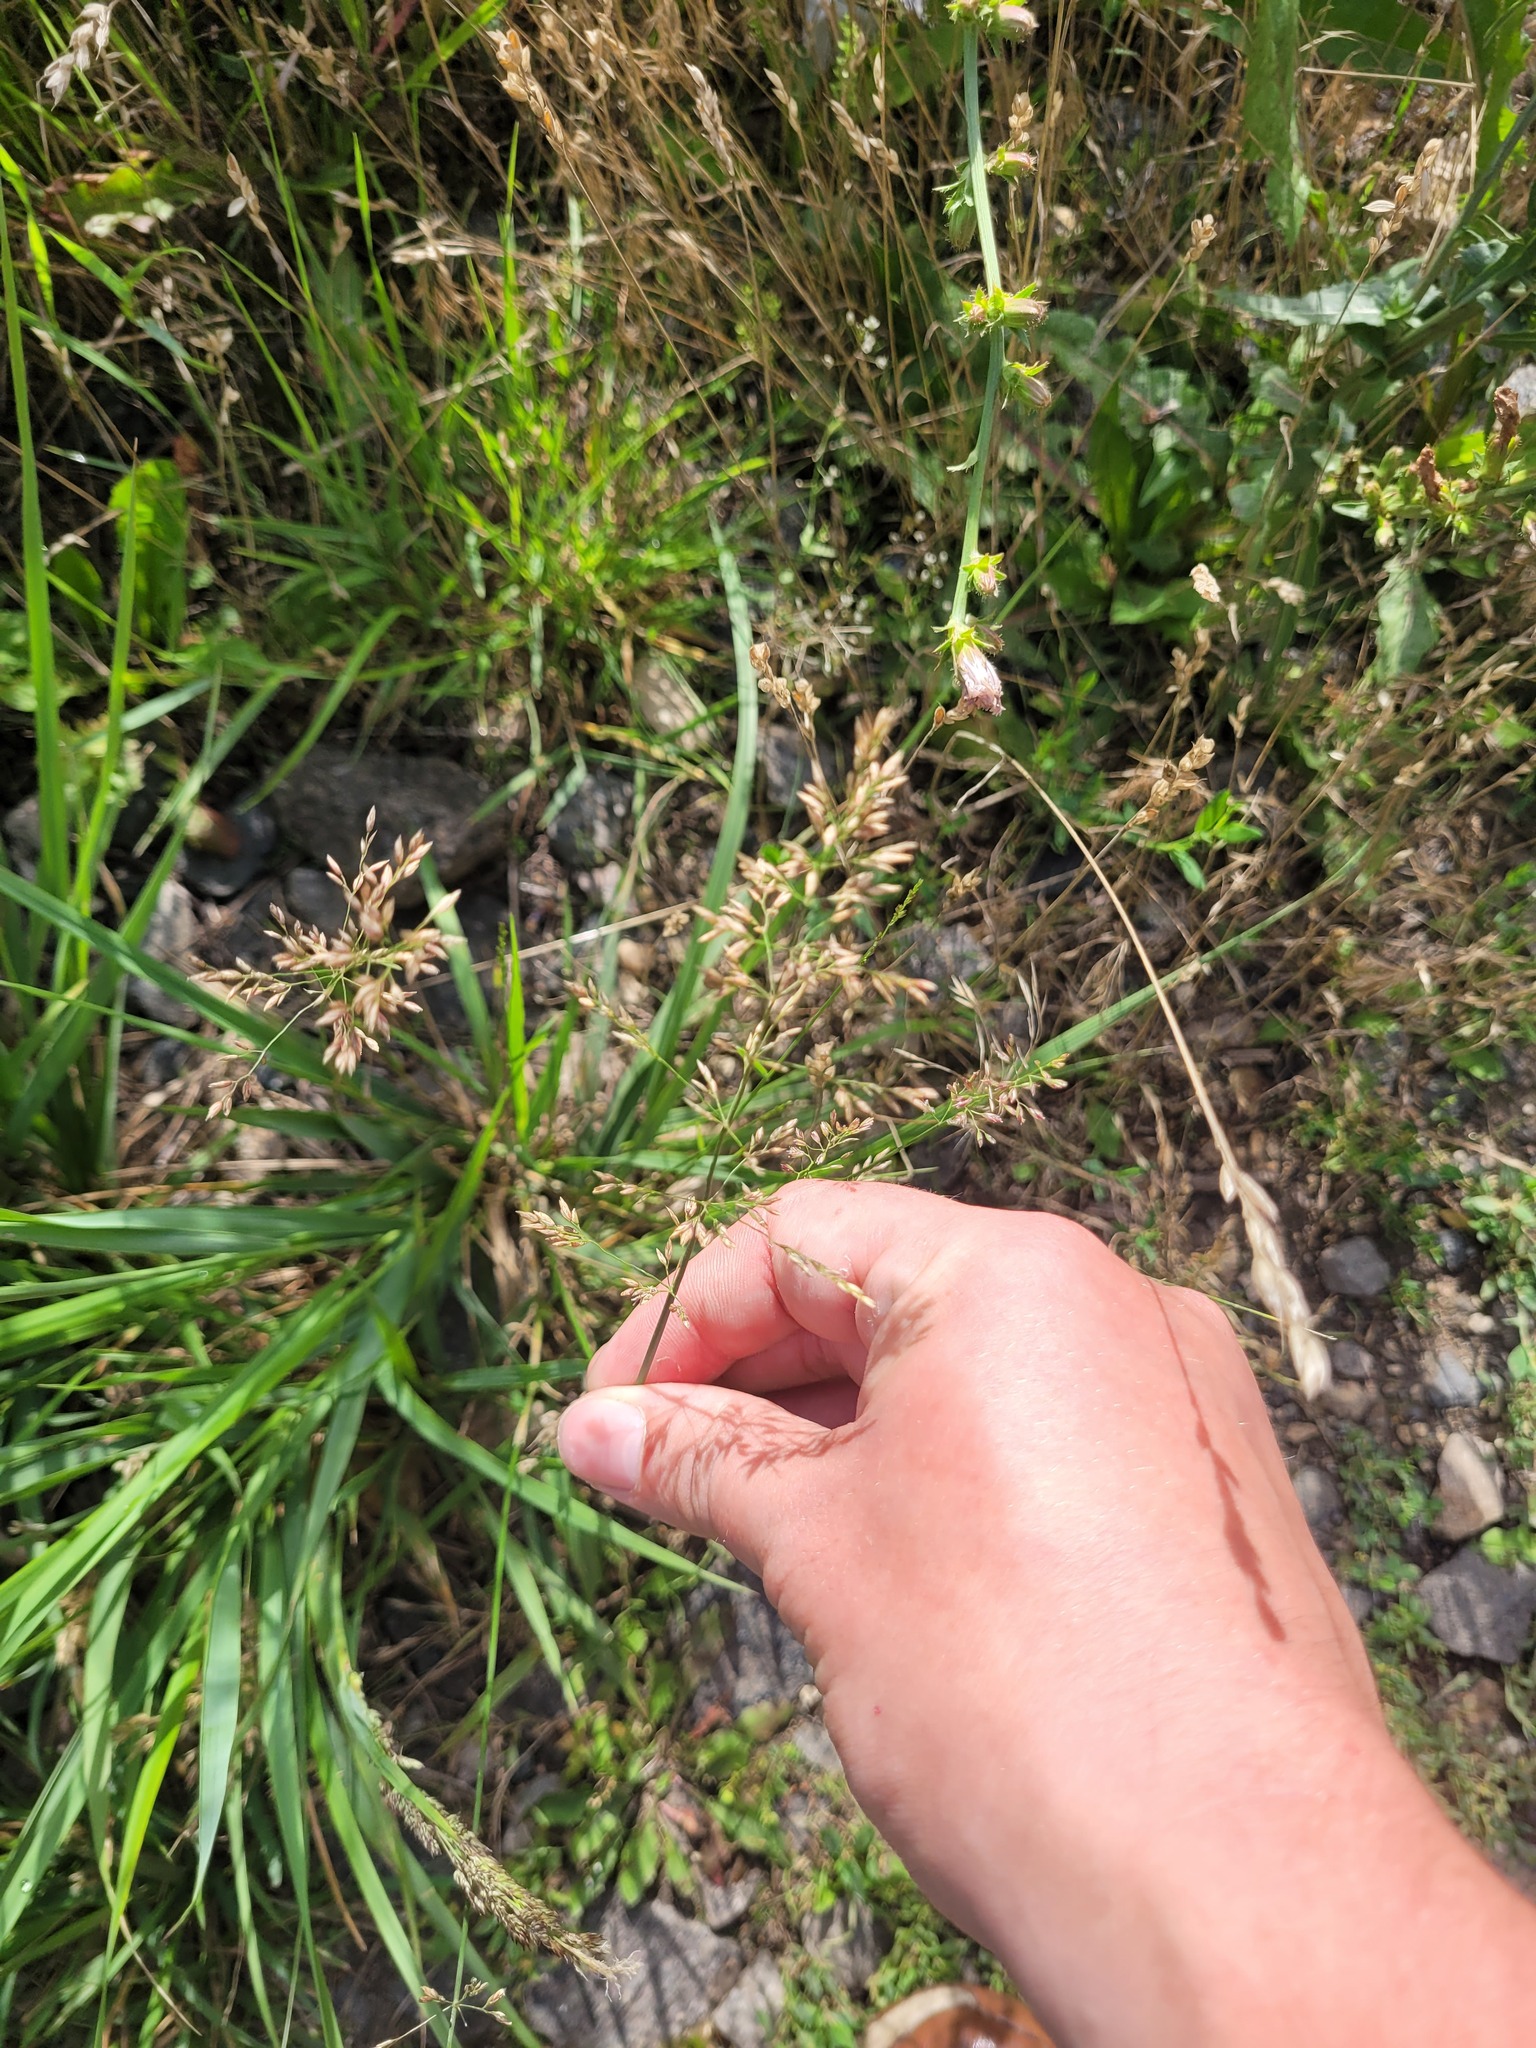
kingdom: Plantae
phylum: Tracheophyta
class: Liliopsida
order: Poales
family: Poaceae
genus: Poa
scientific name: Poa compressa
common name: Canada bluegrass
